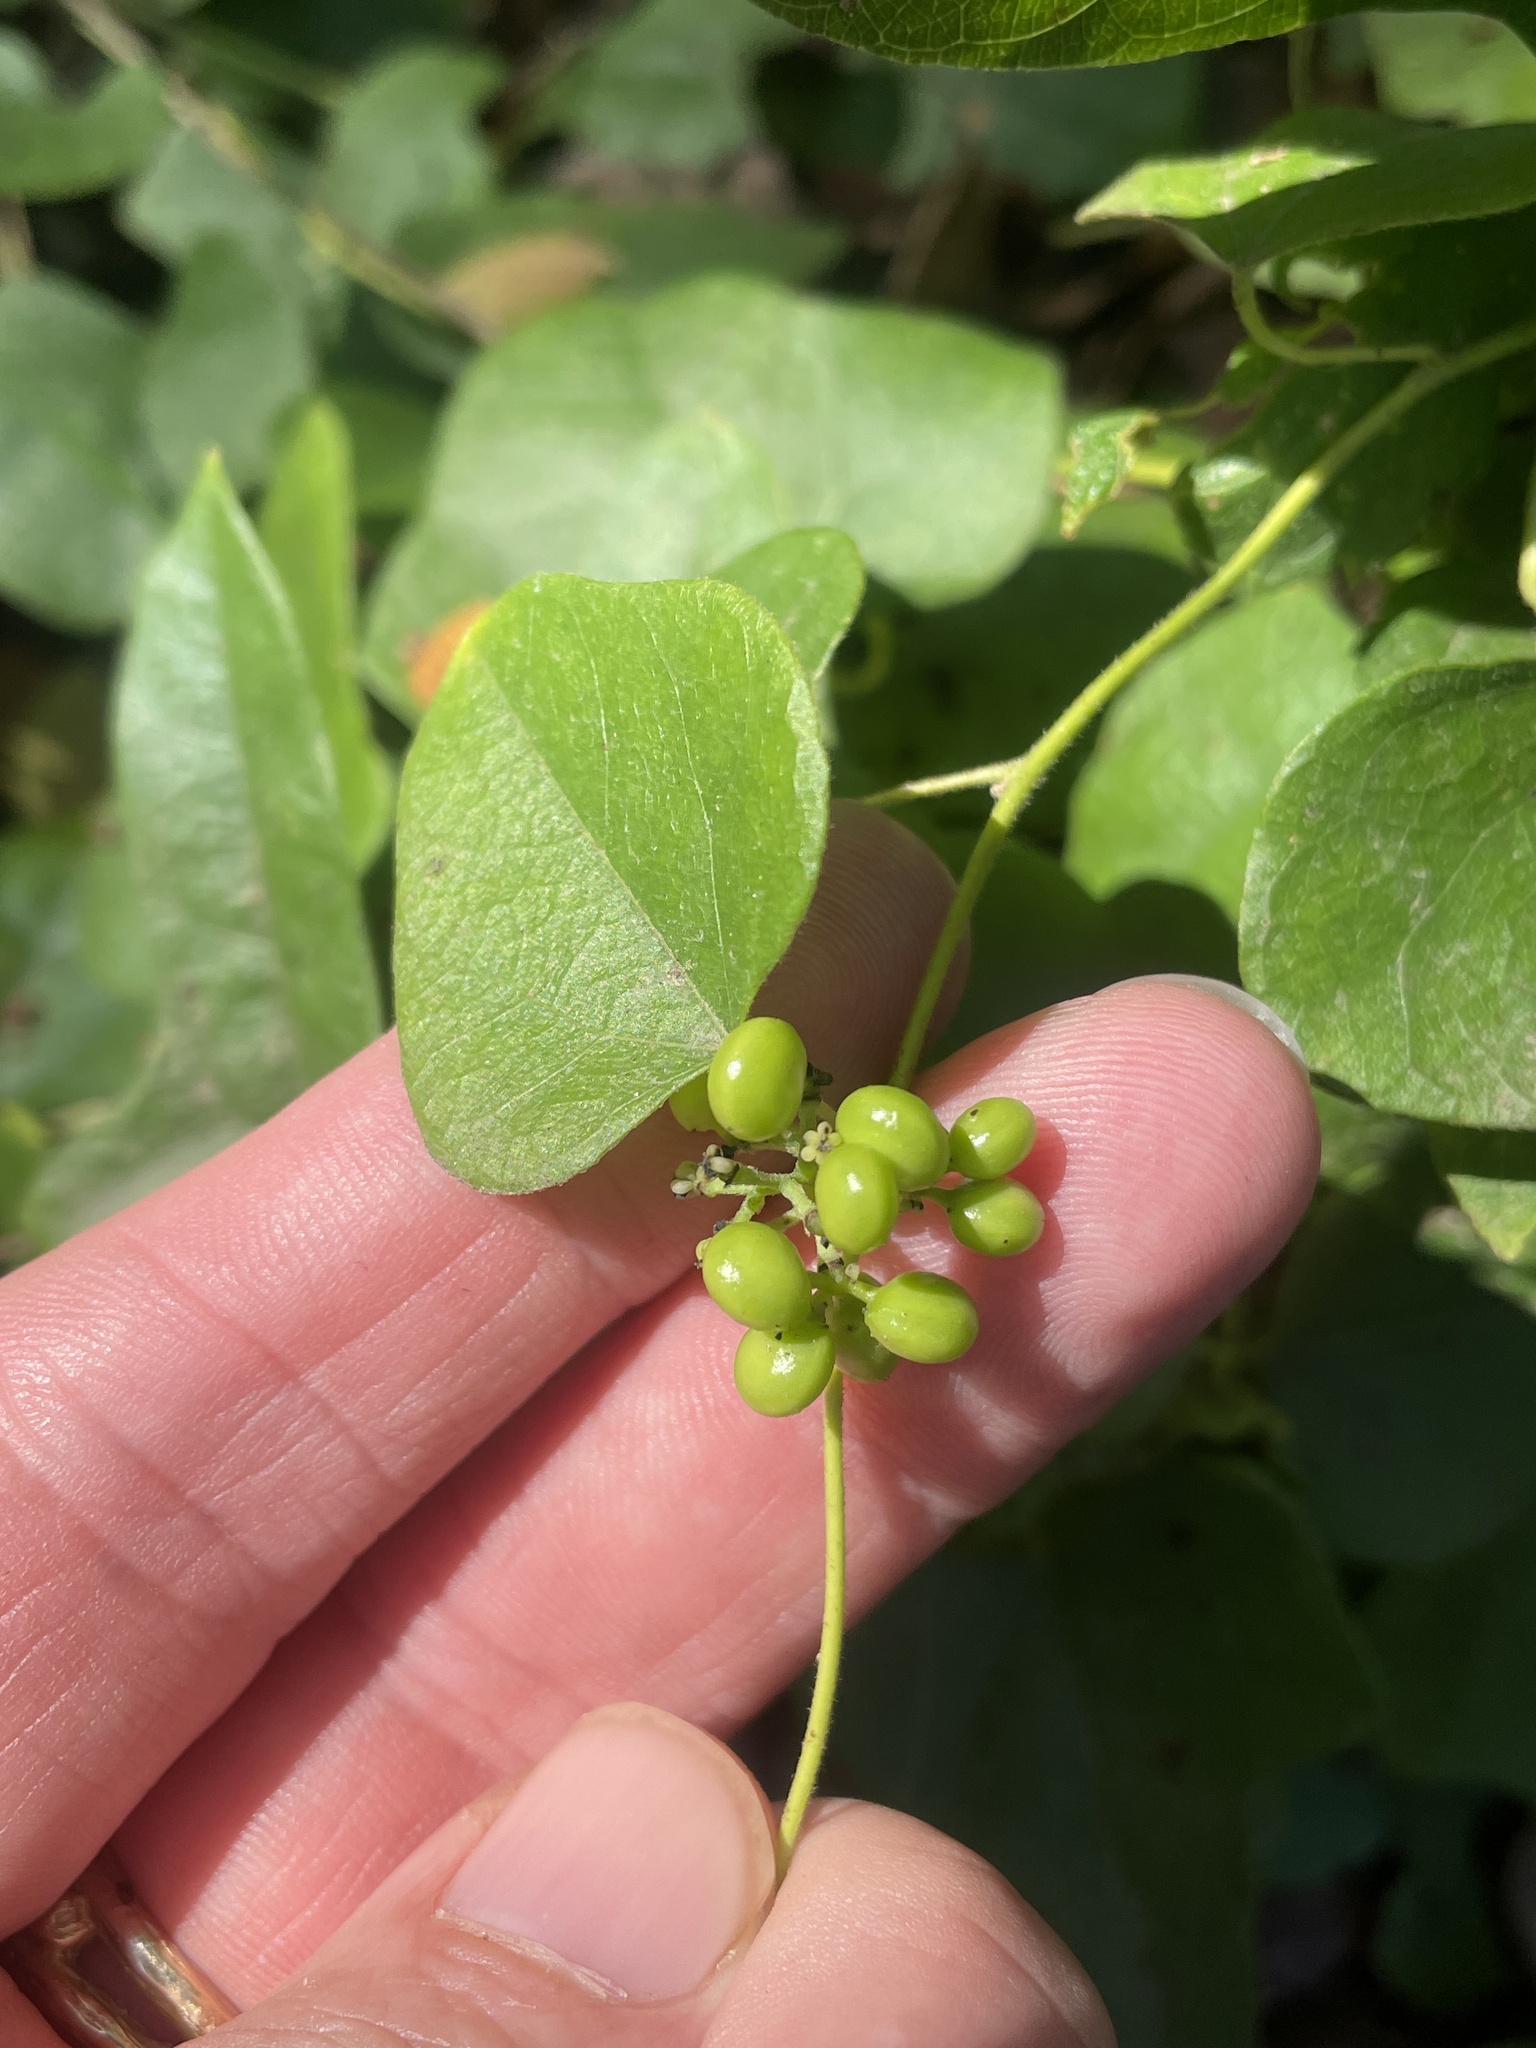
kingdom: Plantae
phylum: Tracheophyta
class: Magnoliopsida
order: Ranunculales
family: Menispermaceae
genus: Cocculus
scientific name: Cocculus carolinus
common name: Carolina moonseed
